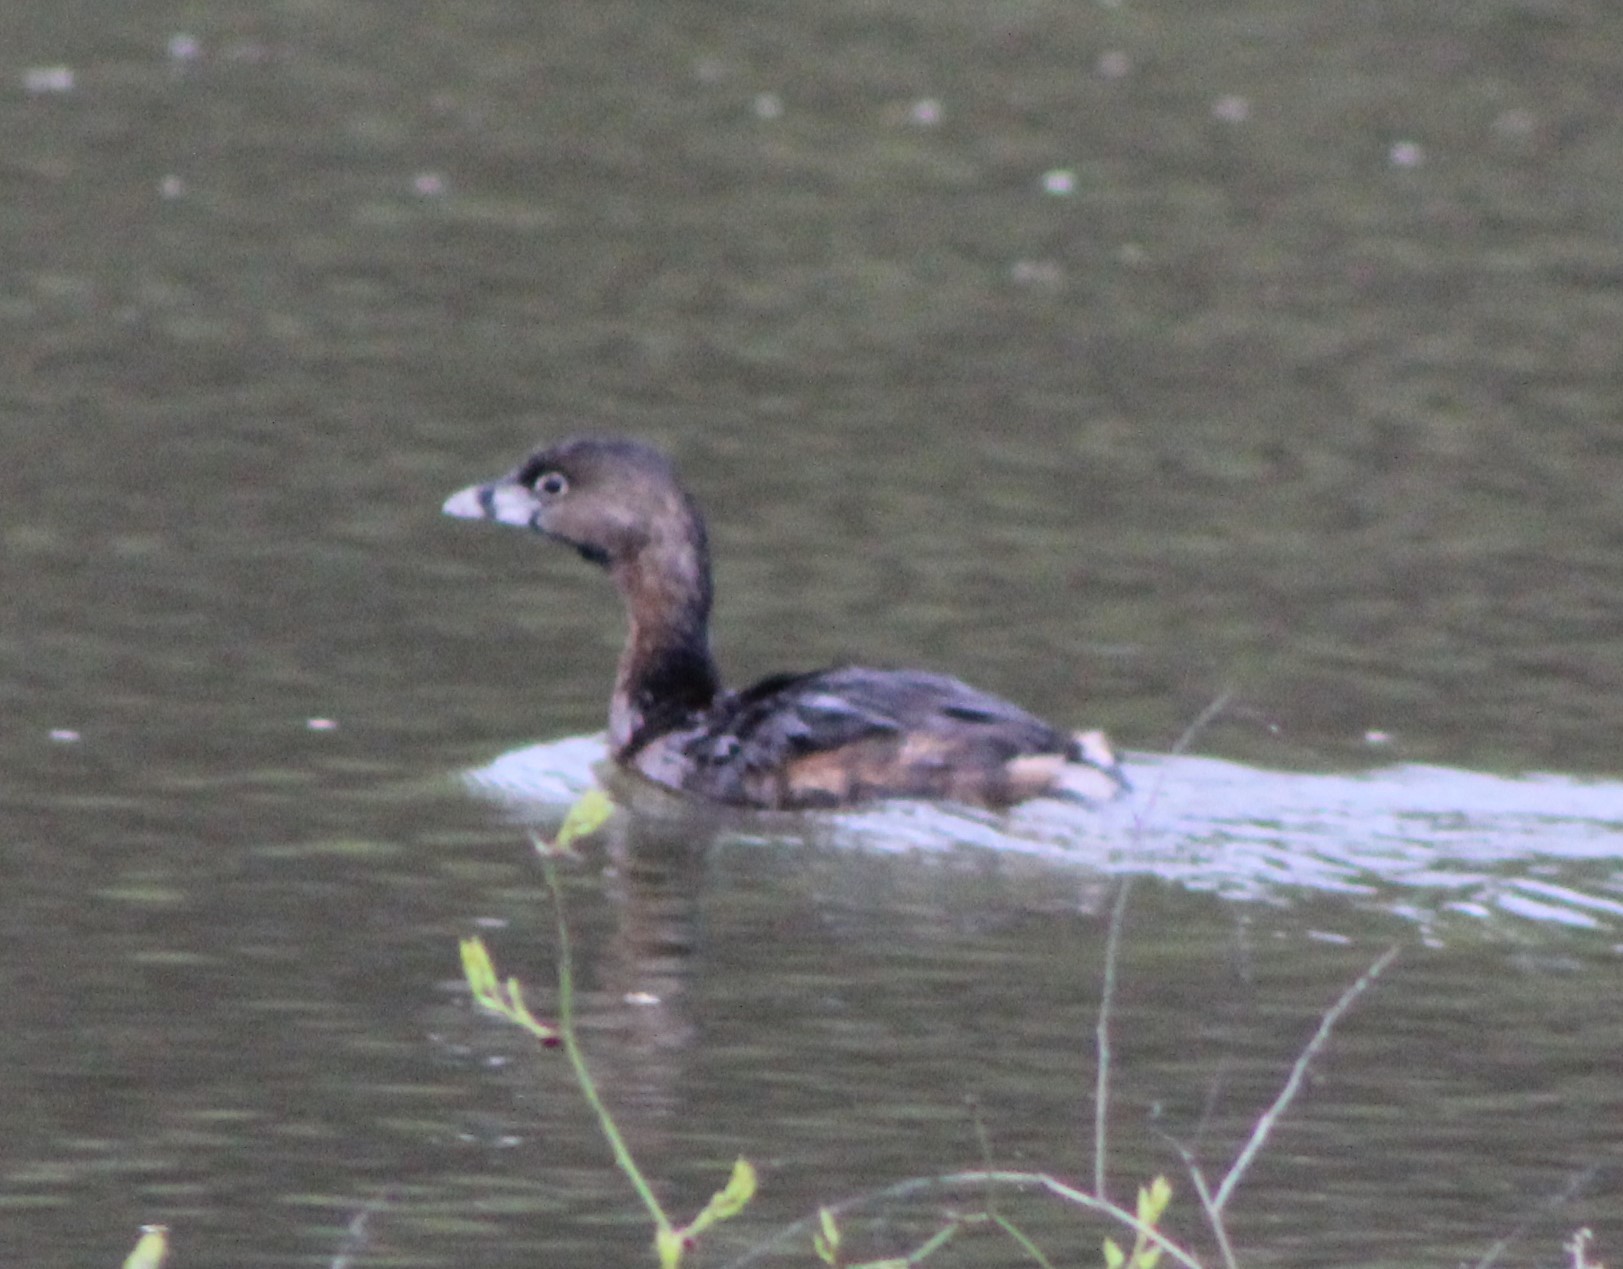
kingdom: Animalia
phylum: Chordata
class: Aves
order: Podicipediformes
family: Podicipedidae
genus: Podilymbus
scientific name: Podilymbus podiceps
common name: Pied-billed grebe
